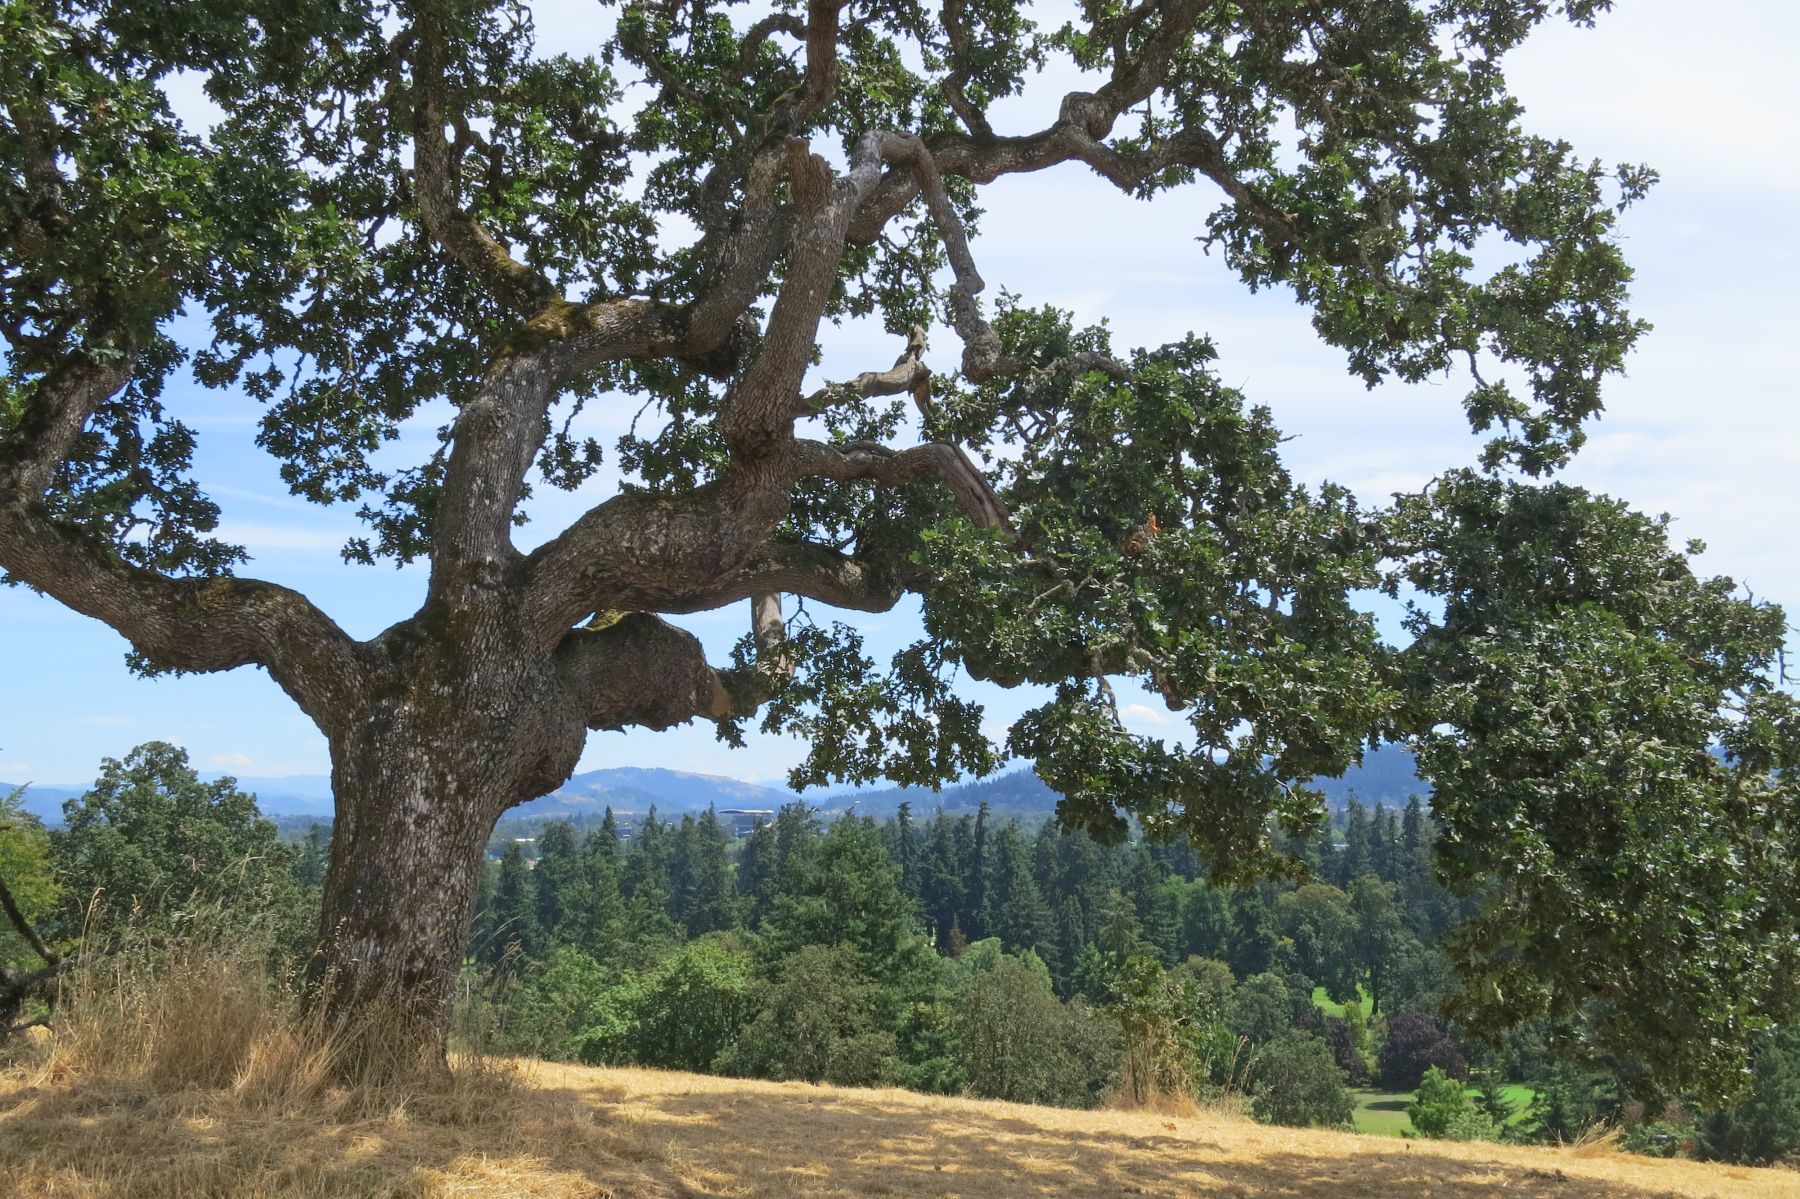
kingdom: Plantae
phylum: Tracheophyta
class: Magnoliopsida
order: Fagales
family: Fagaceae
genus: Quercus
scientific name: Quercus garryana
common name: Garry oak
